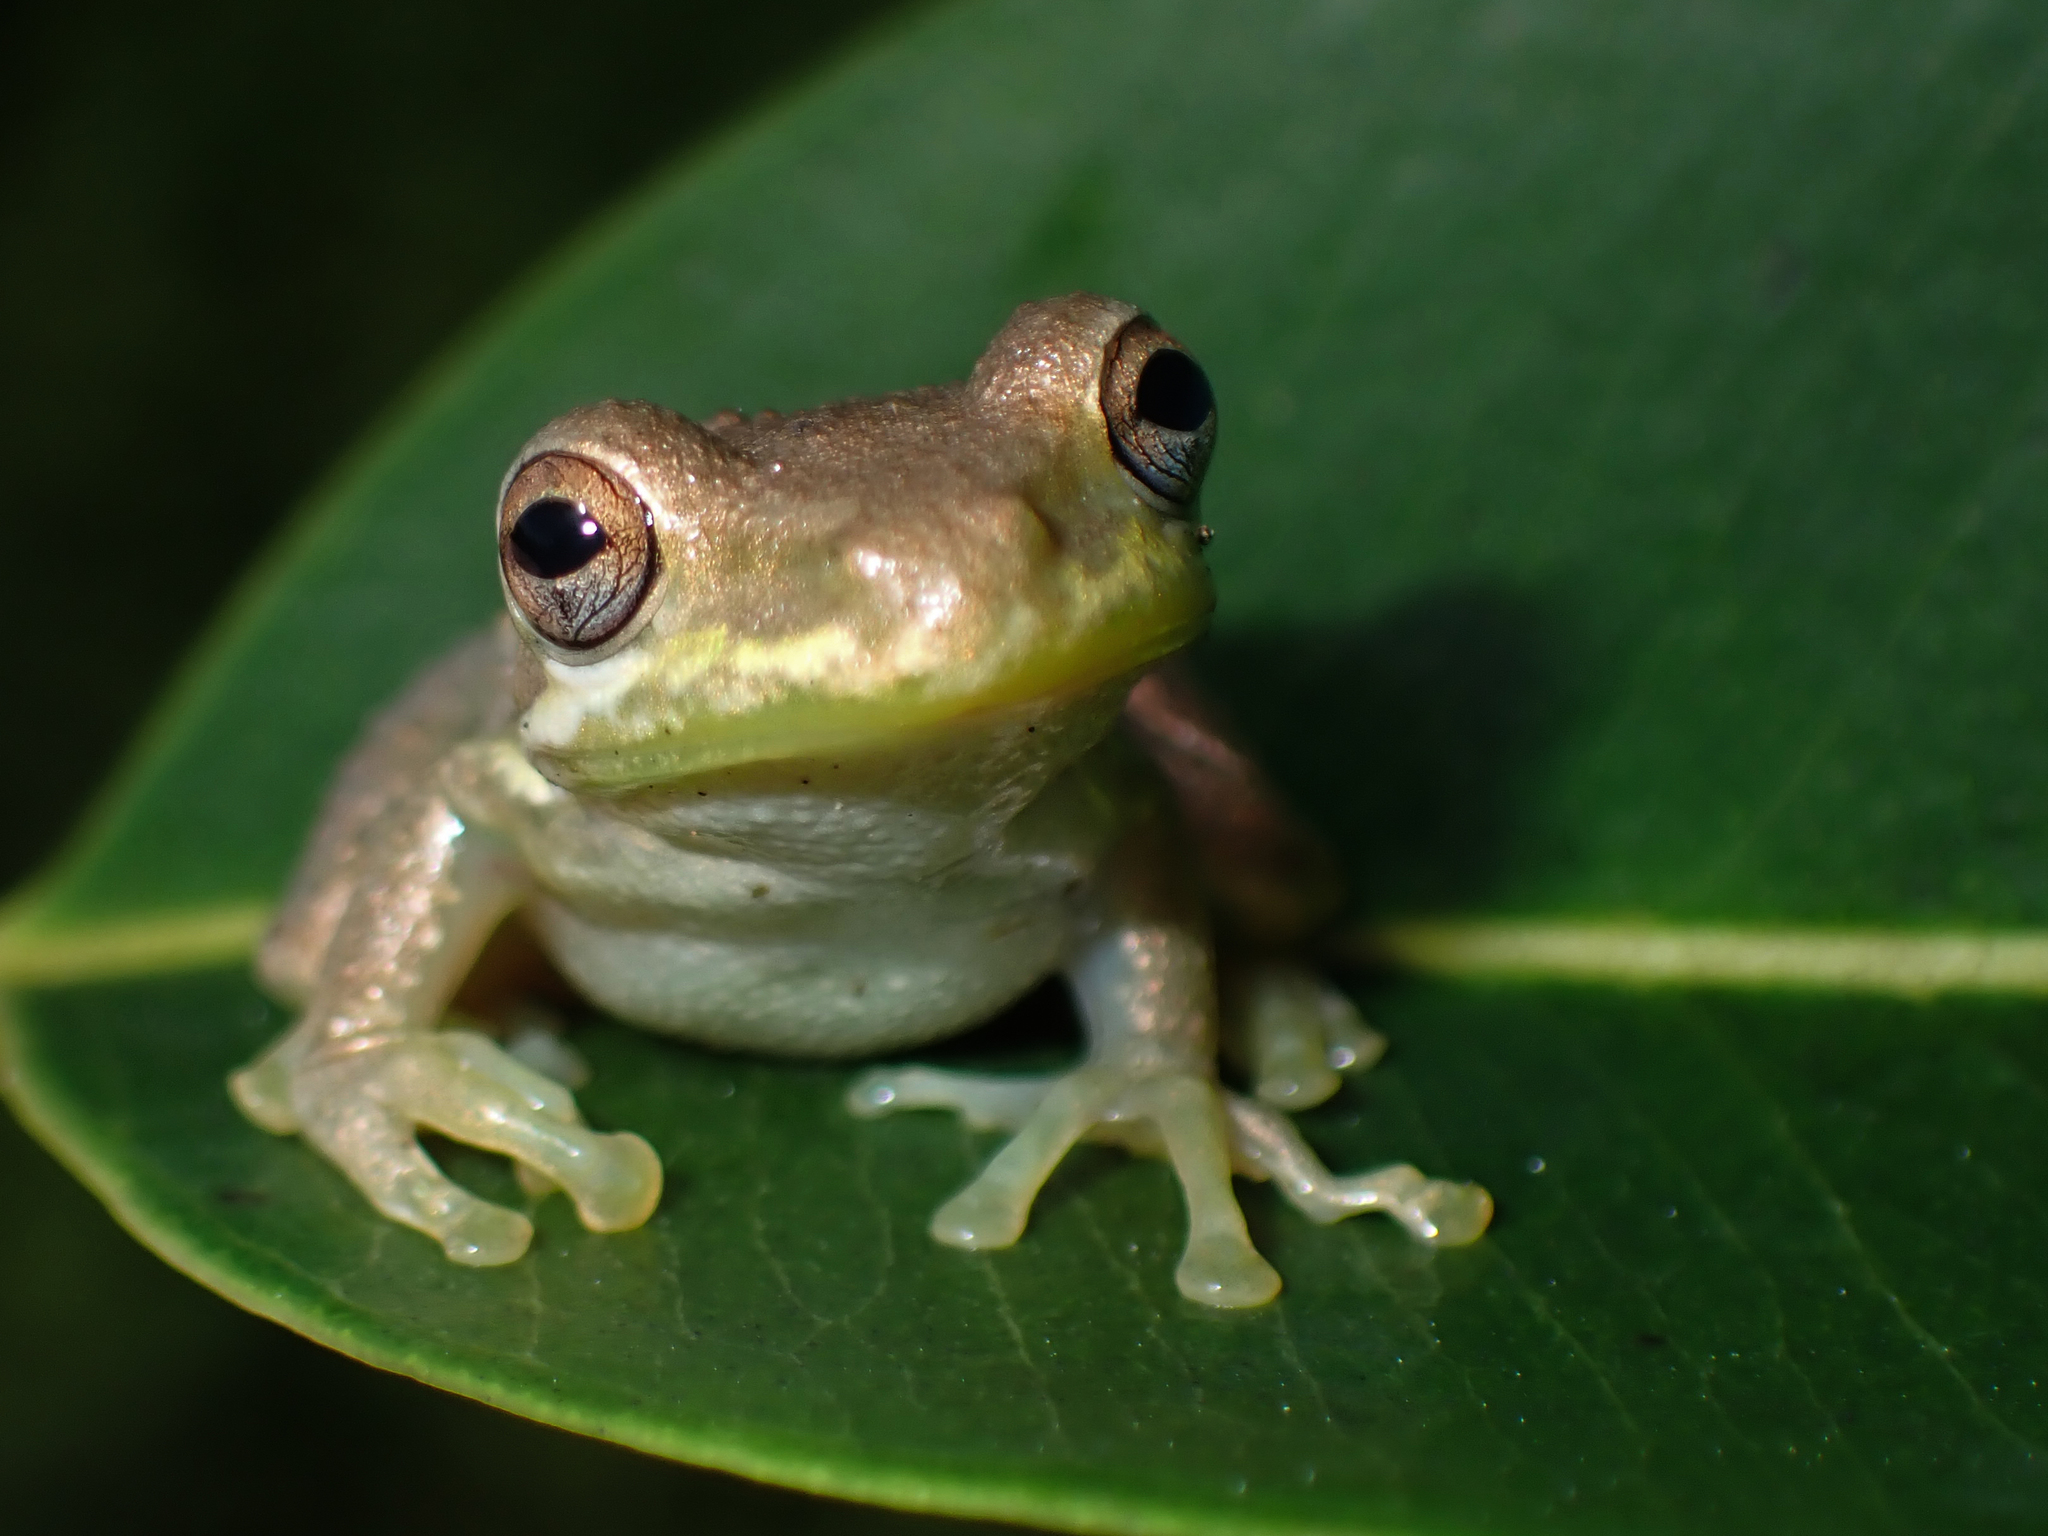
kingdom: Animalia
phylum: Chordata
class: Amphibia
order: Anura
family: Hylidae
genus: Osteopilus
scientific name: Osteopilus septentrionalis
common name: Cuban treefrog
